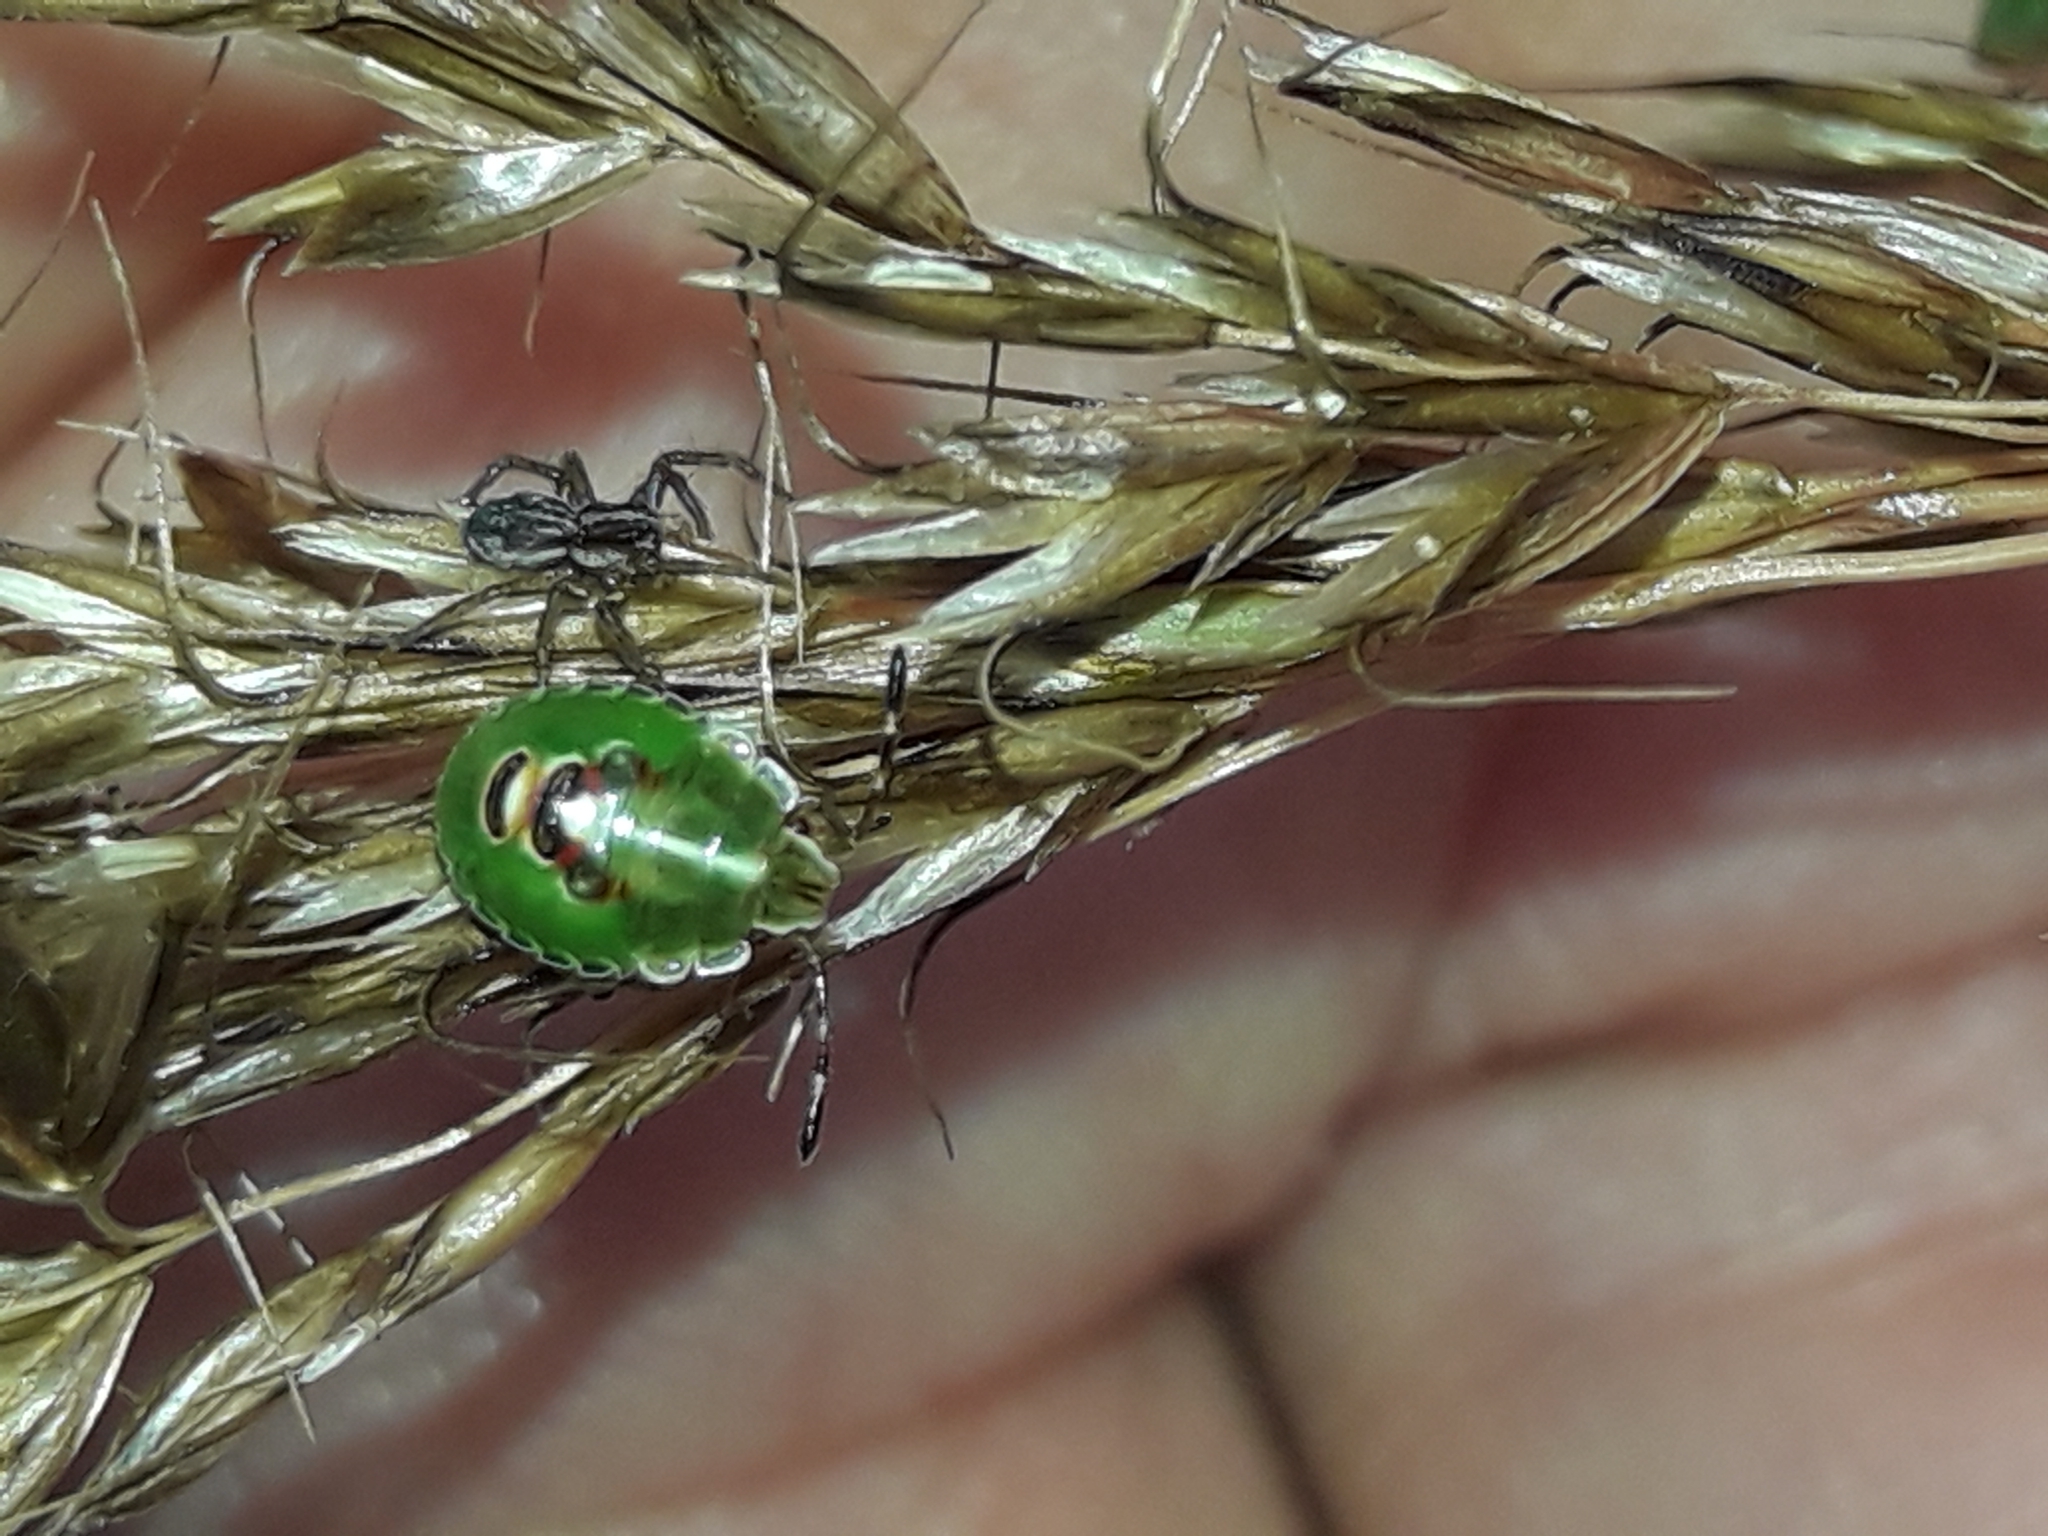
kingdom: Animalia
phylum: Arthropoda
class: Insecta
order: Hemiptera
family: Acanthosomatidae
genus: Oncacontias
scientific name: Oncacontias vittatus
